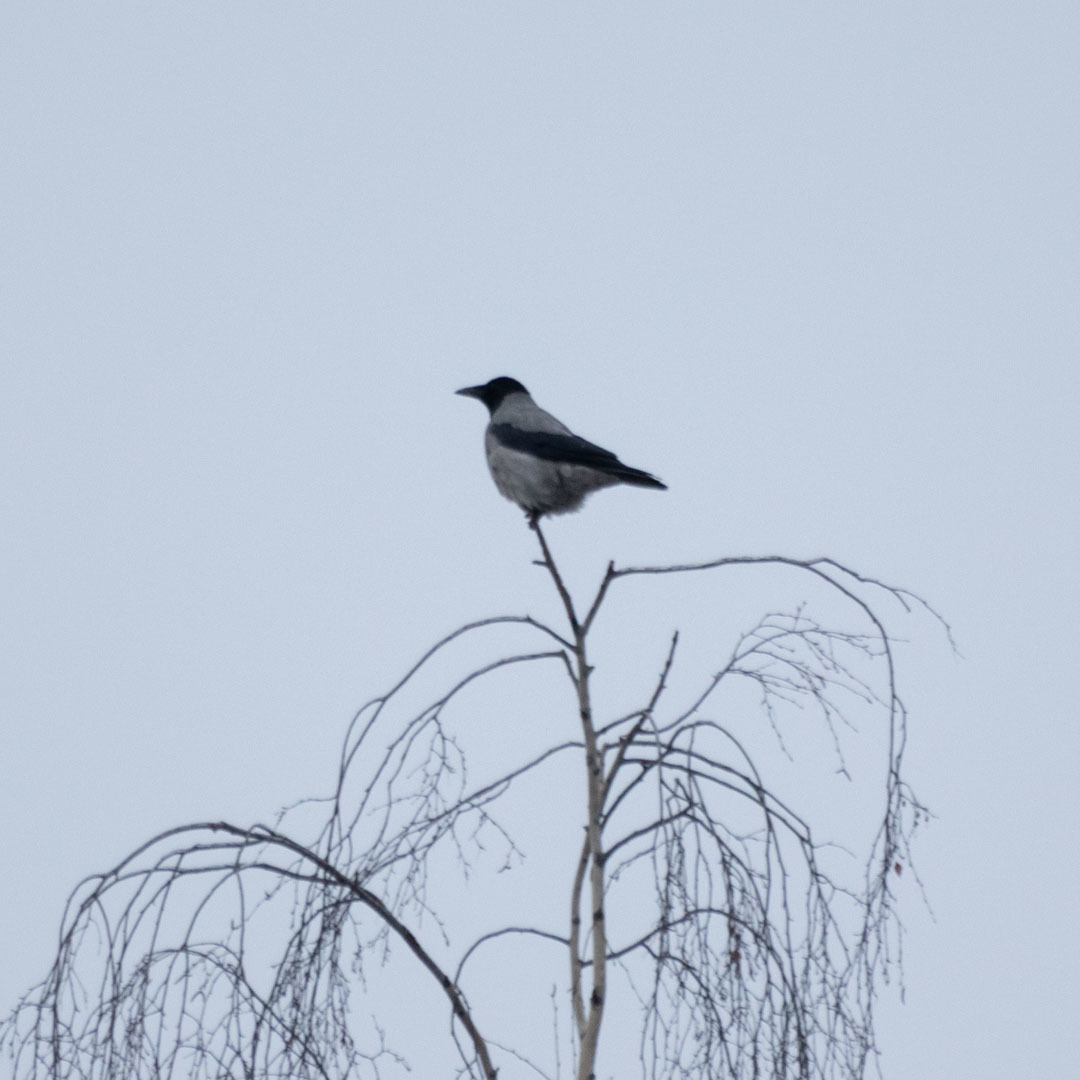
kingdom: Animalia
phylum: Chordata
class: Aves
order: Passeriformes
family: Corvidae
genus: Corvus
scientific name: Corvus cornix
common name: Hooded crow
